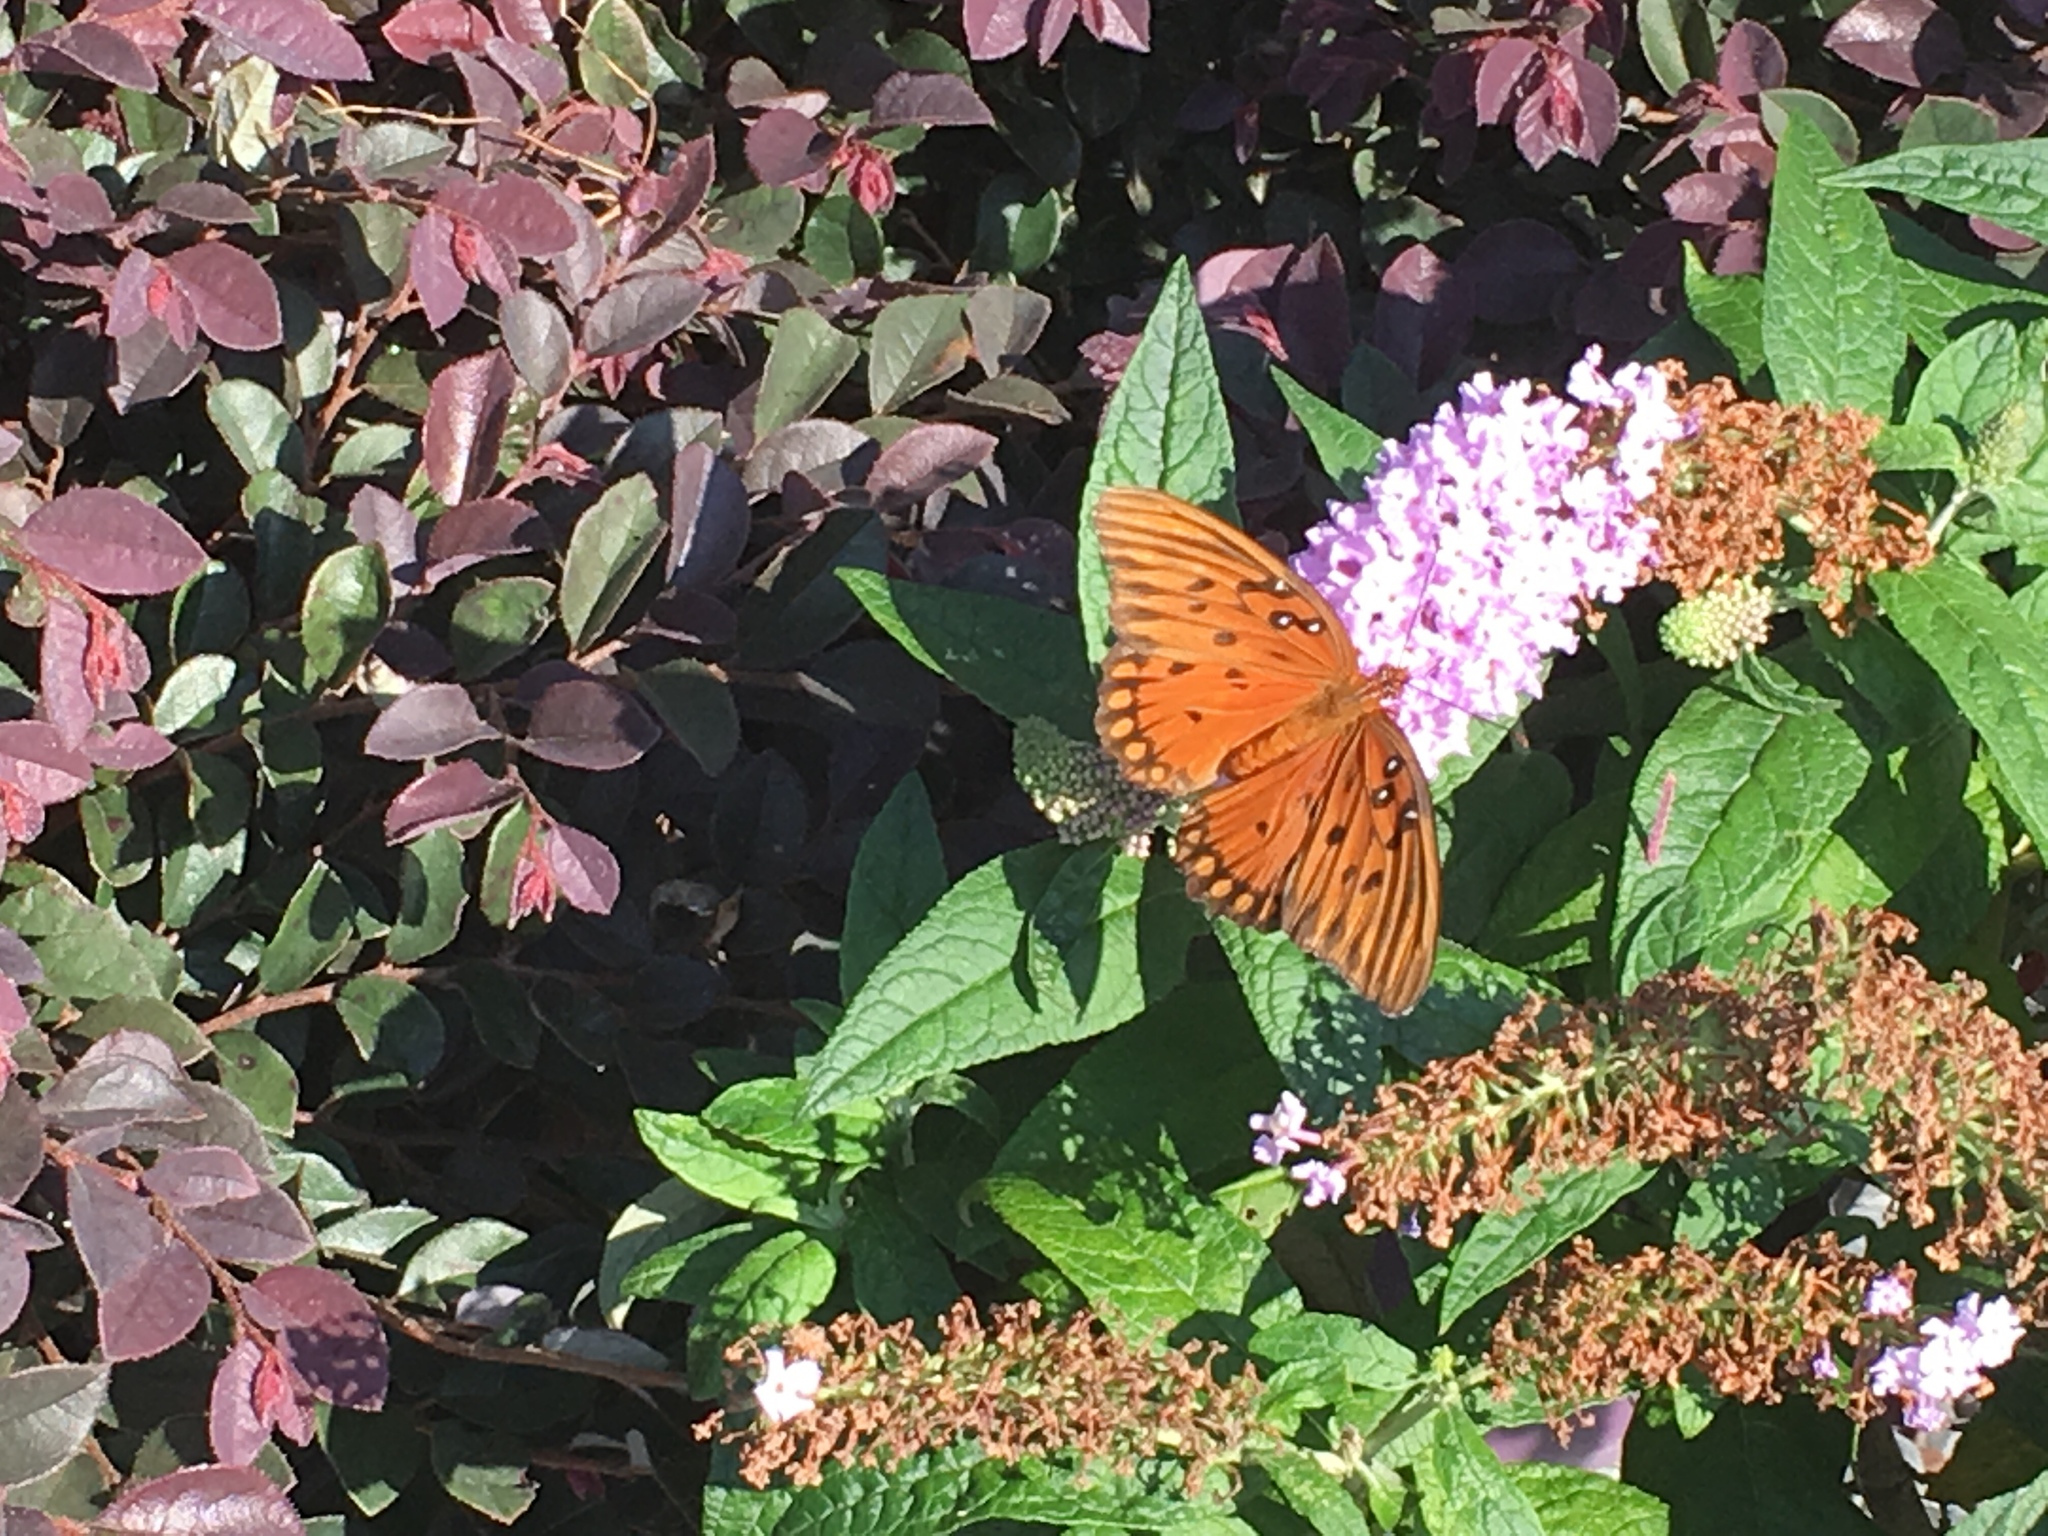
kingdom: Animalia
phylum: Arthropoda
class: Insecta
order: Lepidoptera
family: Nymphalidae
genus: Dione
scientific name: Dione vanillae
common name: Gulf fritillary
